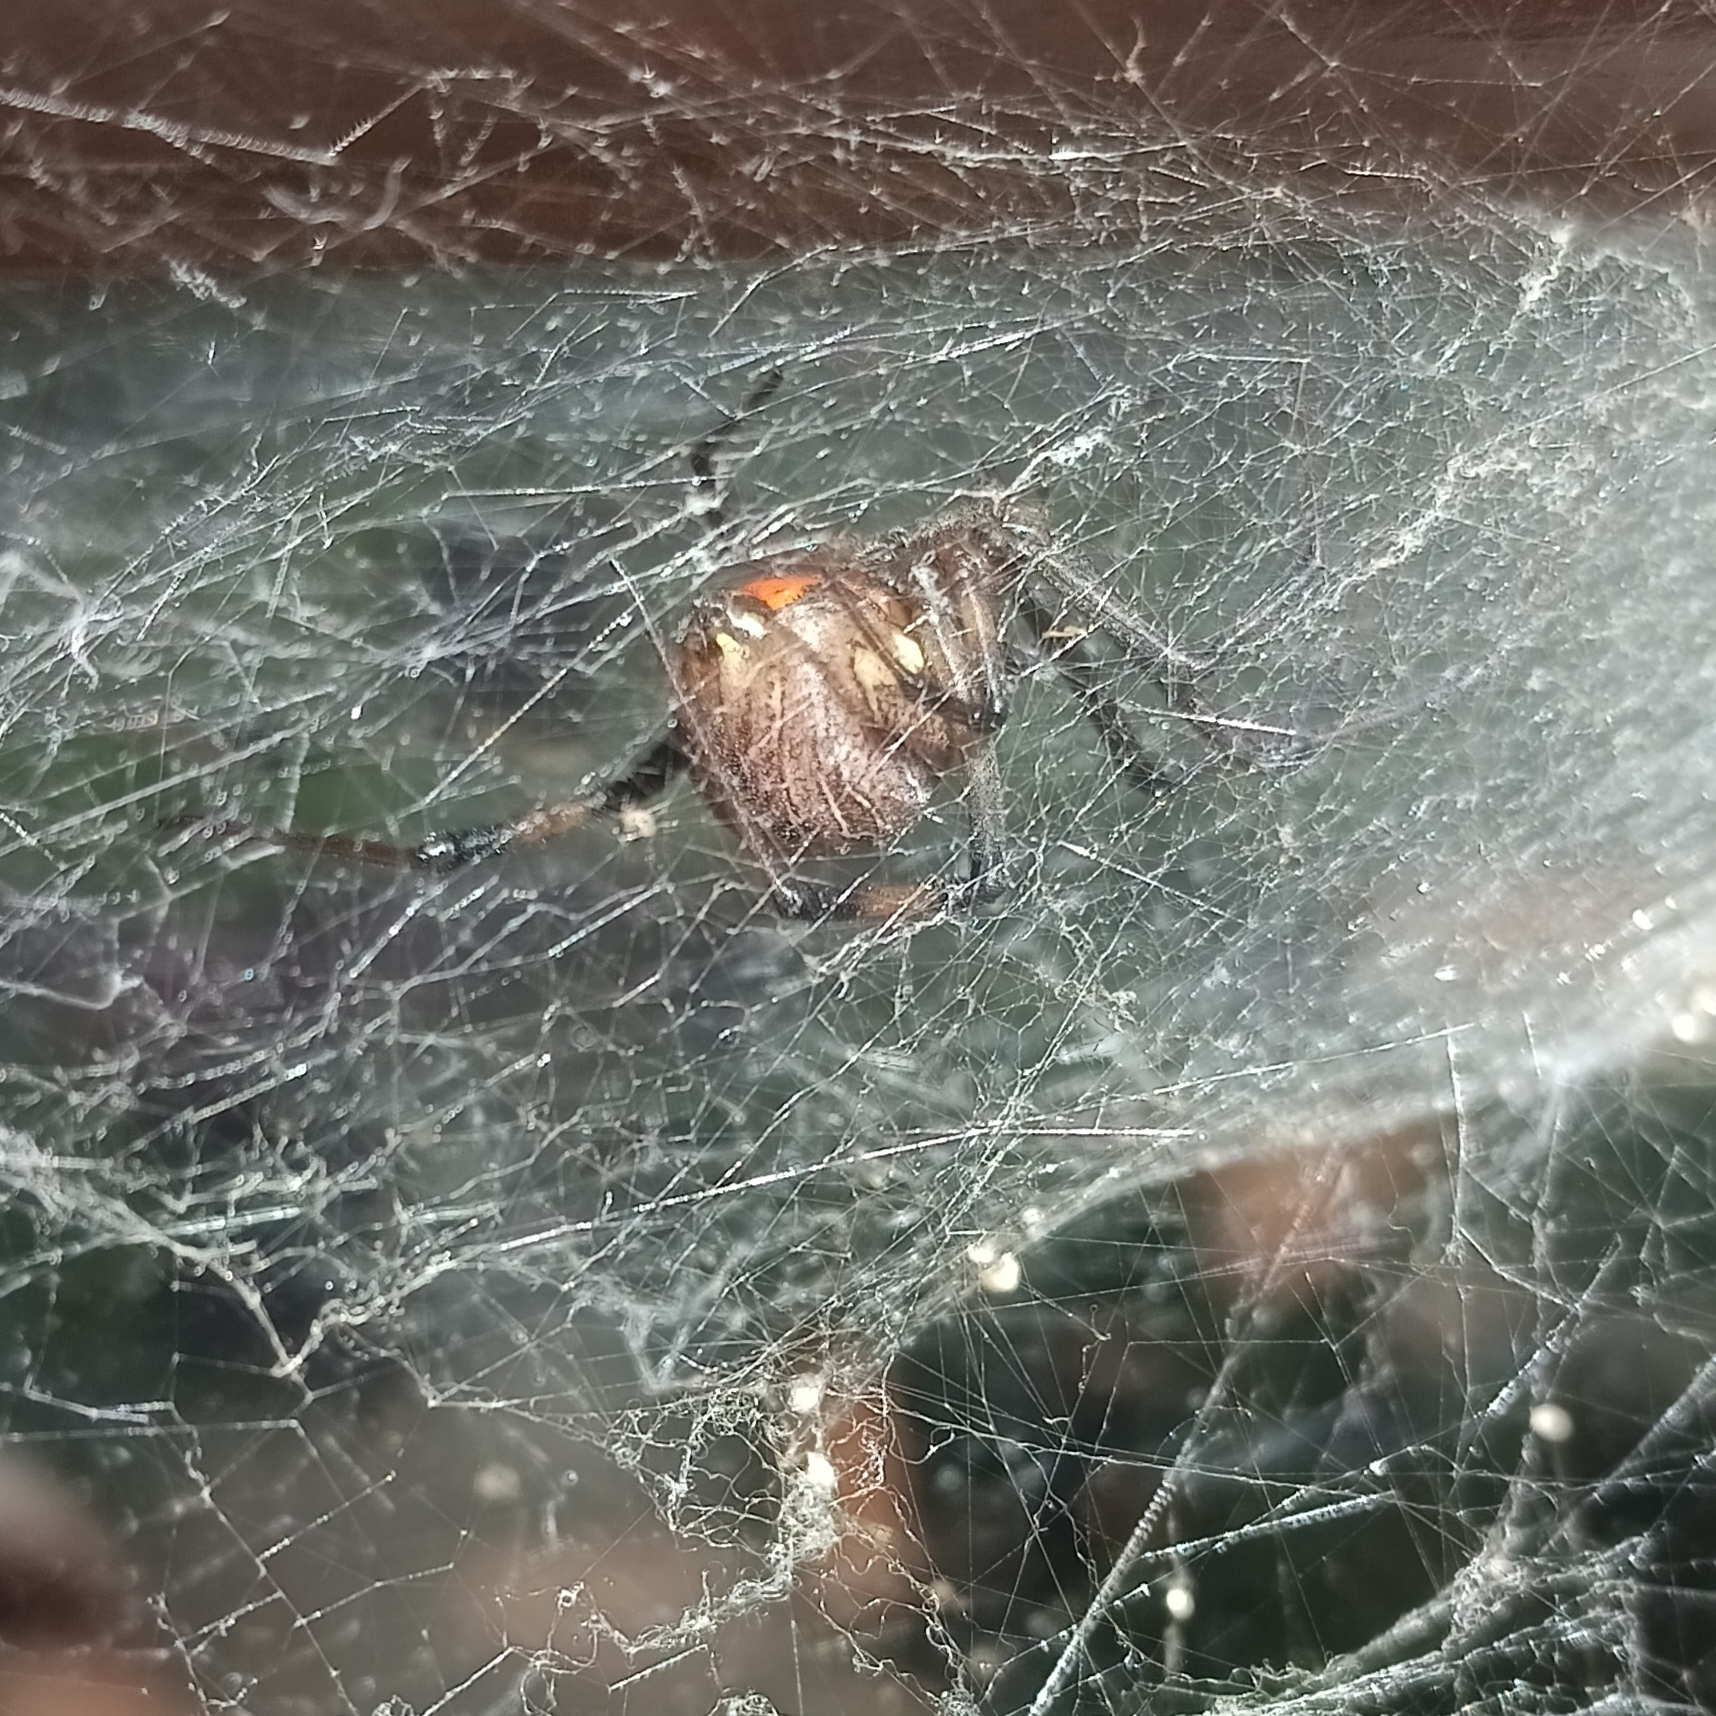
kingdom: Animalia
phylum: Arthropoda
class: Arachnida
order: Araneae
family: Theridiidae
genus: Latrodectus
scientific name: Latrodectus geometricus
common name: Brown widow spider
